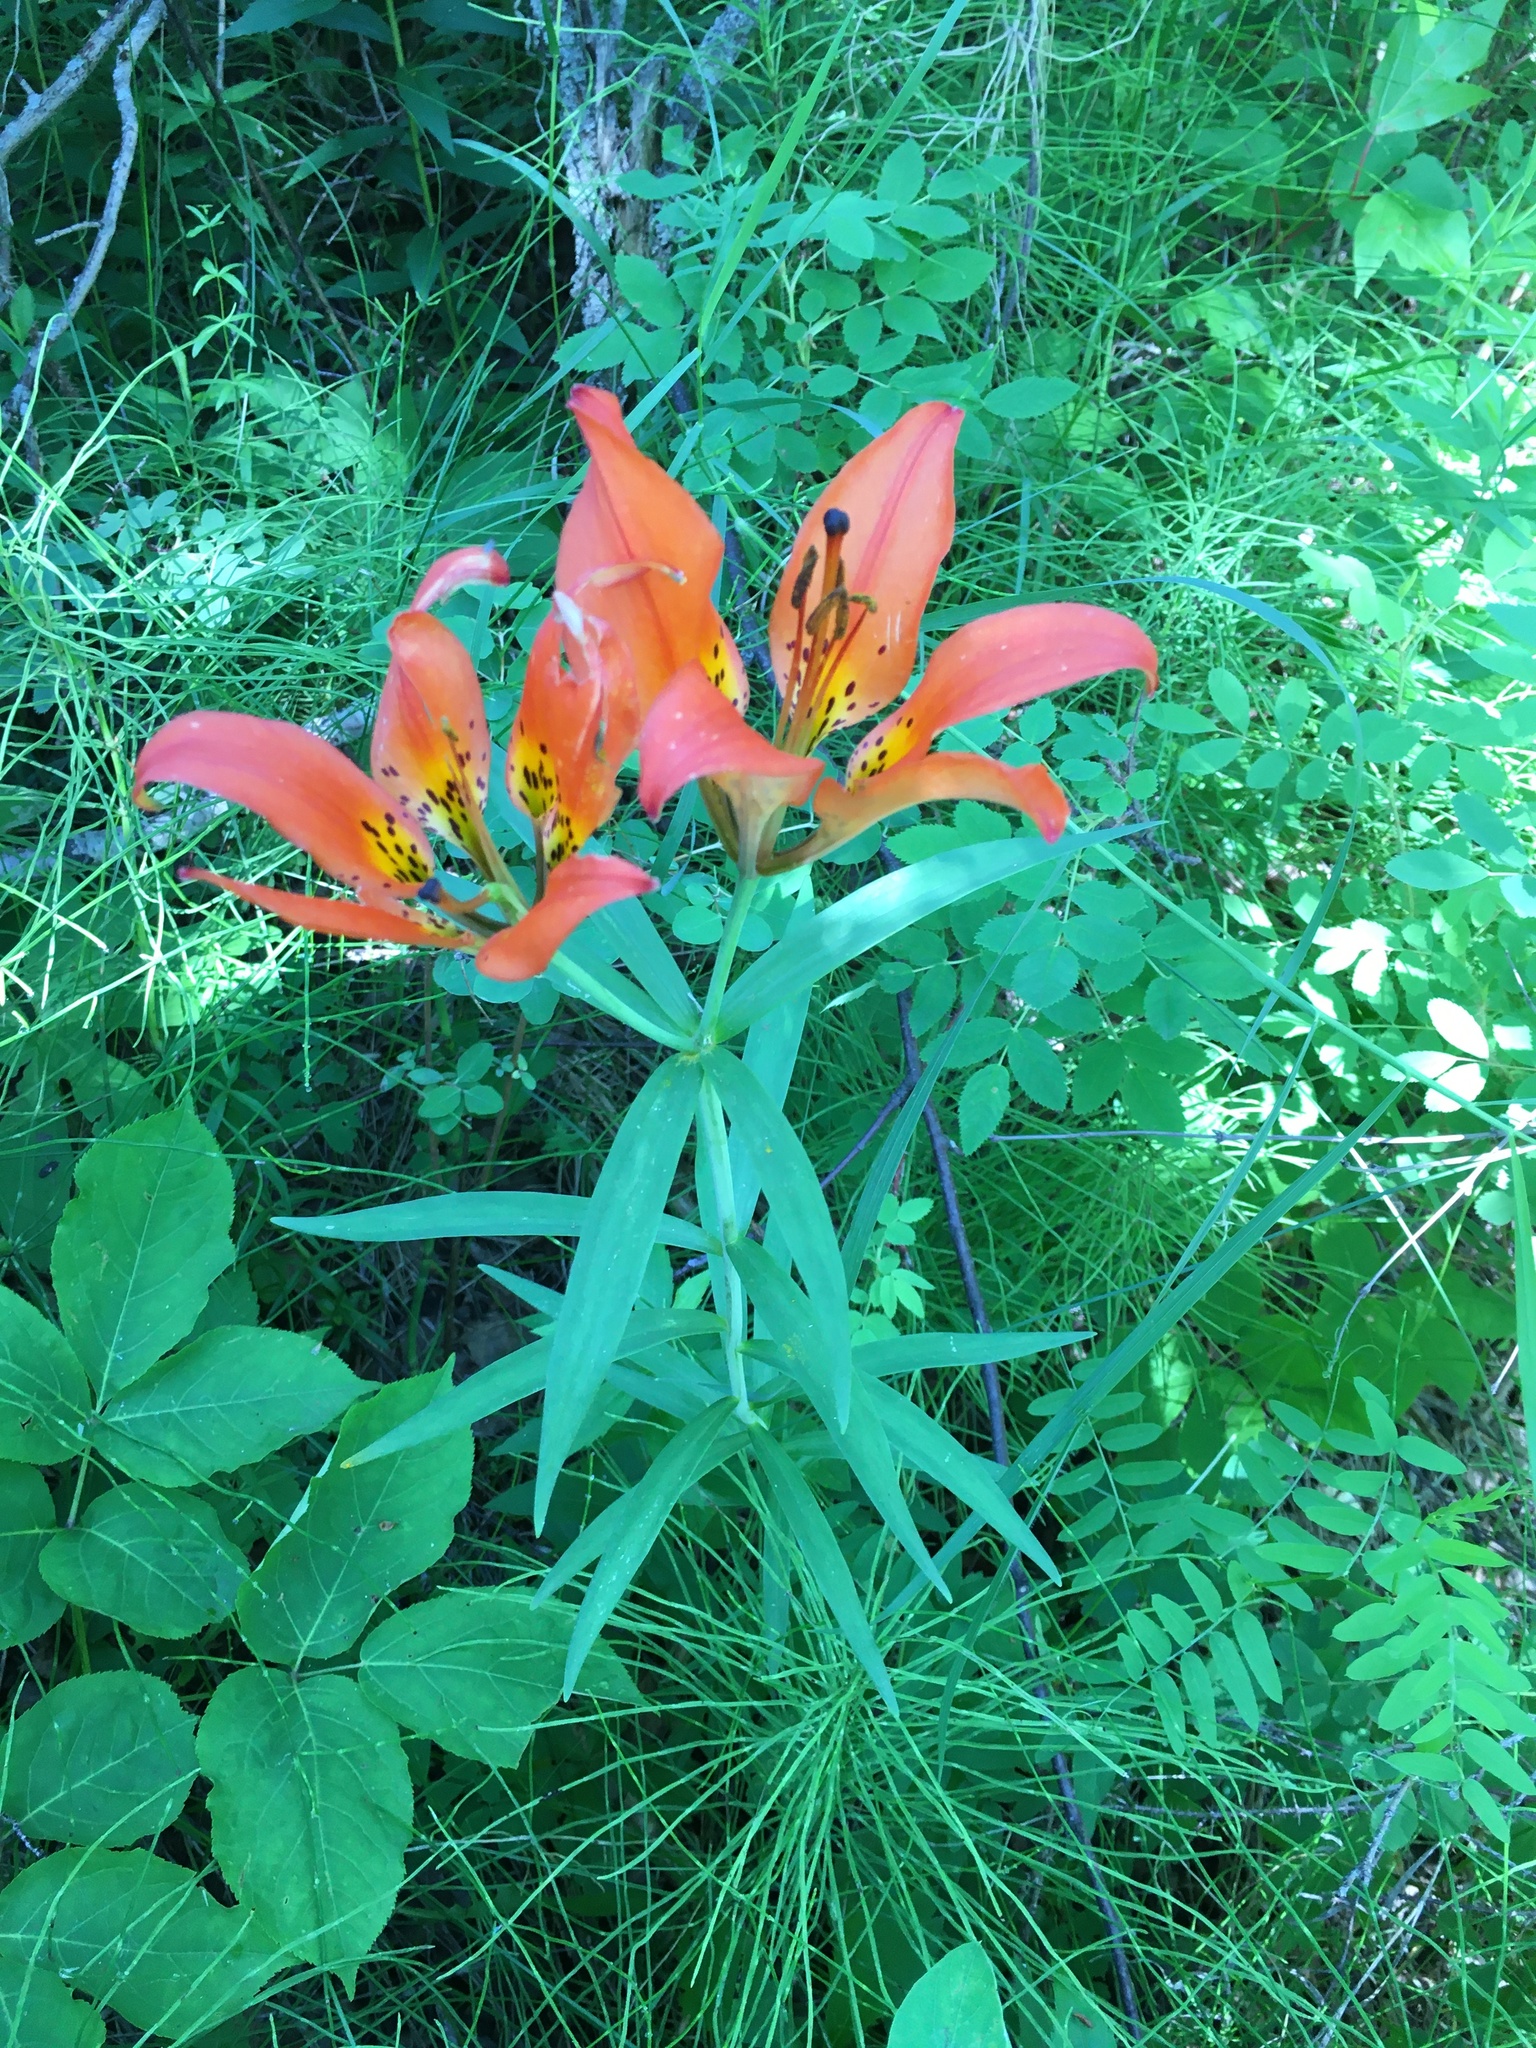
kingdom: Plantae
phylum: Tracheophyta
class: Liliopsida
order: Liliales
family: Liliaceae
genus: Lilium
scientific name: Lilium philadelphicum
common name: Red lily
